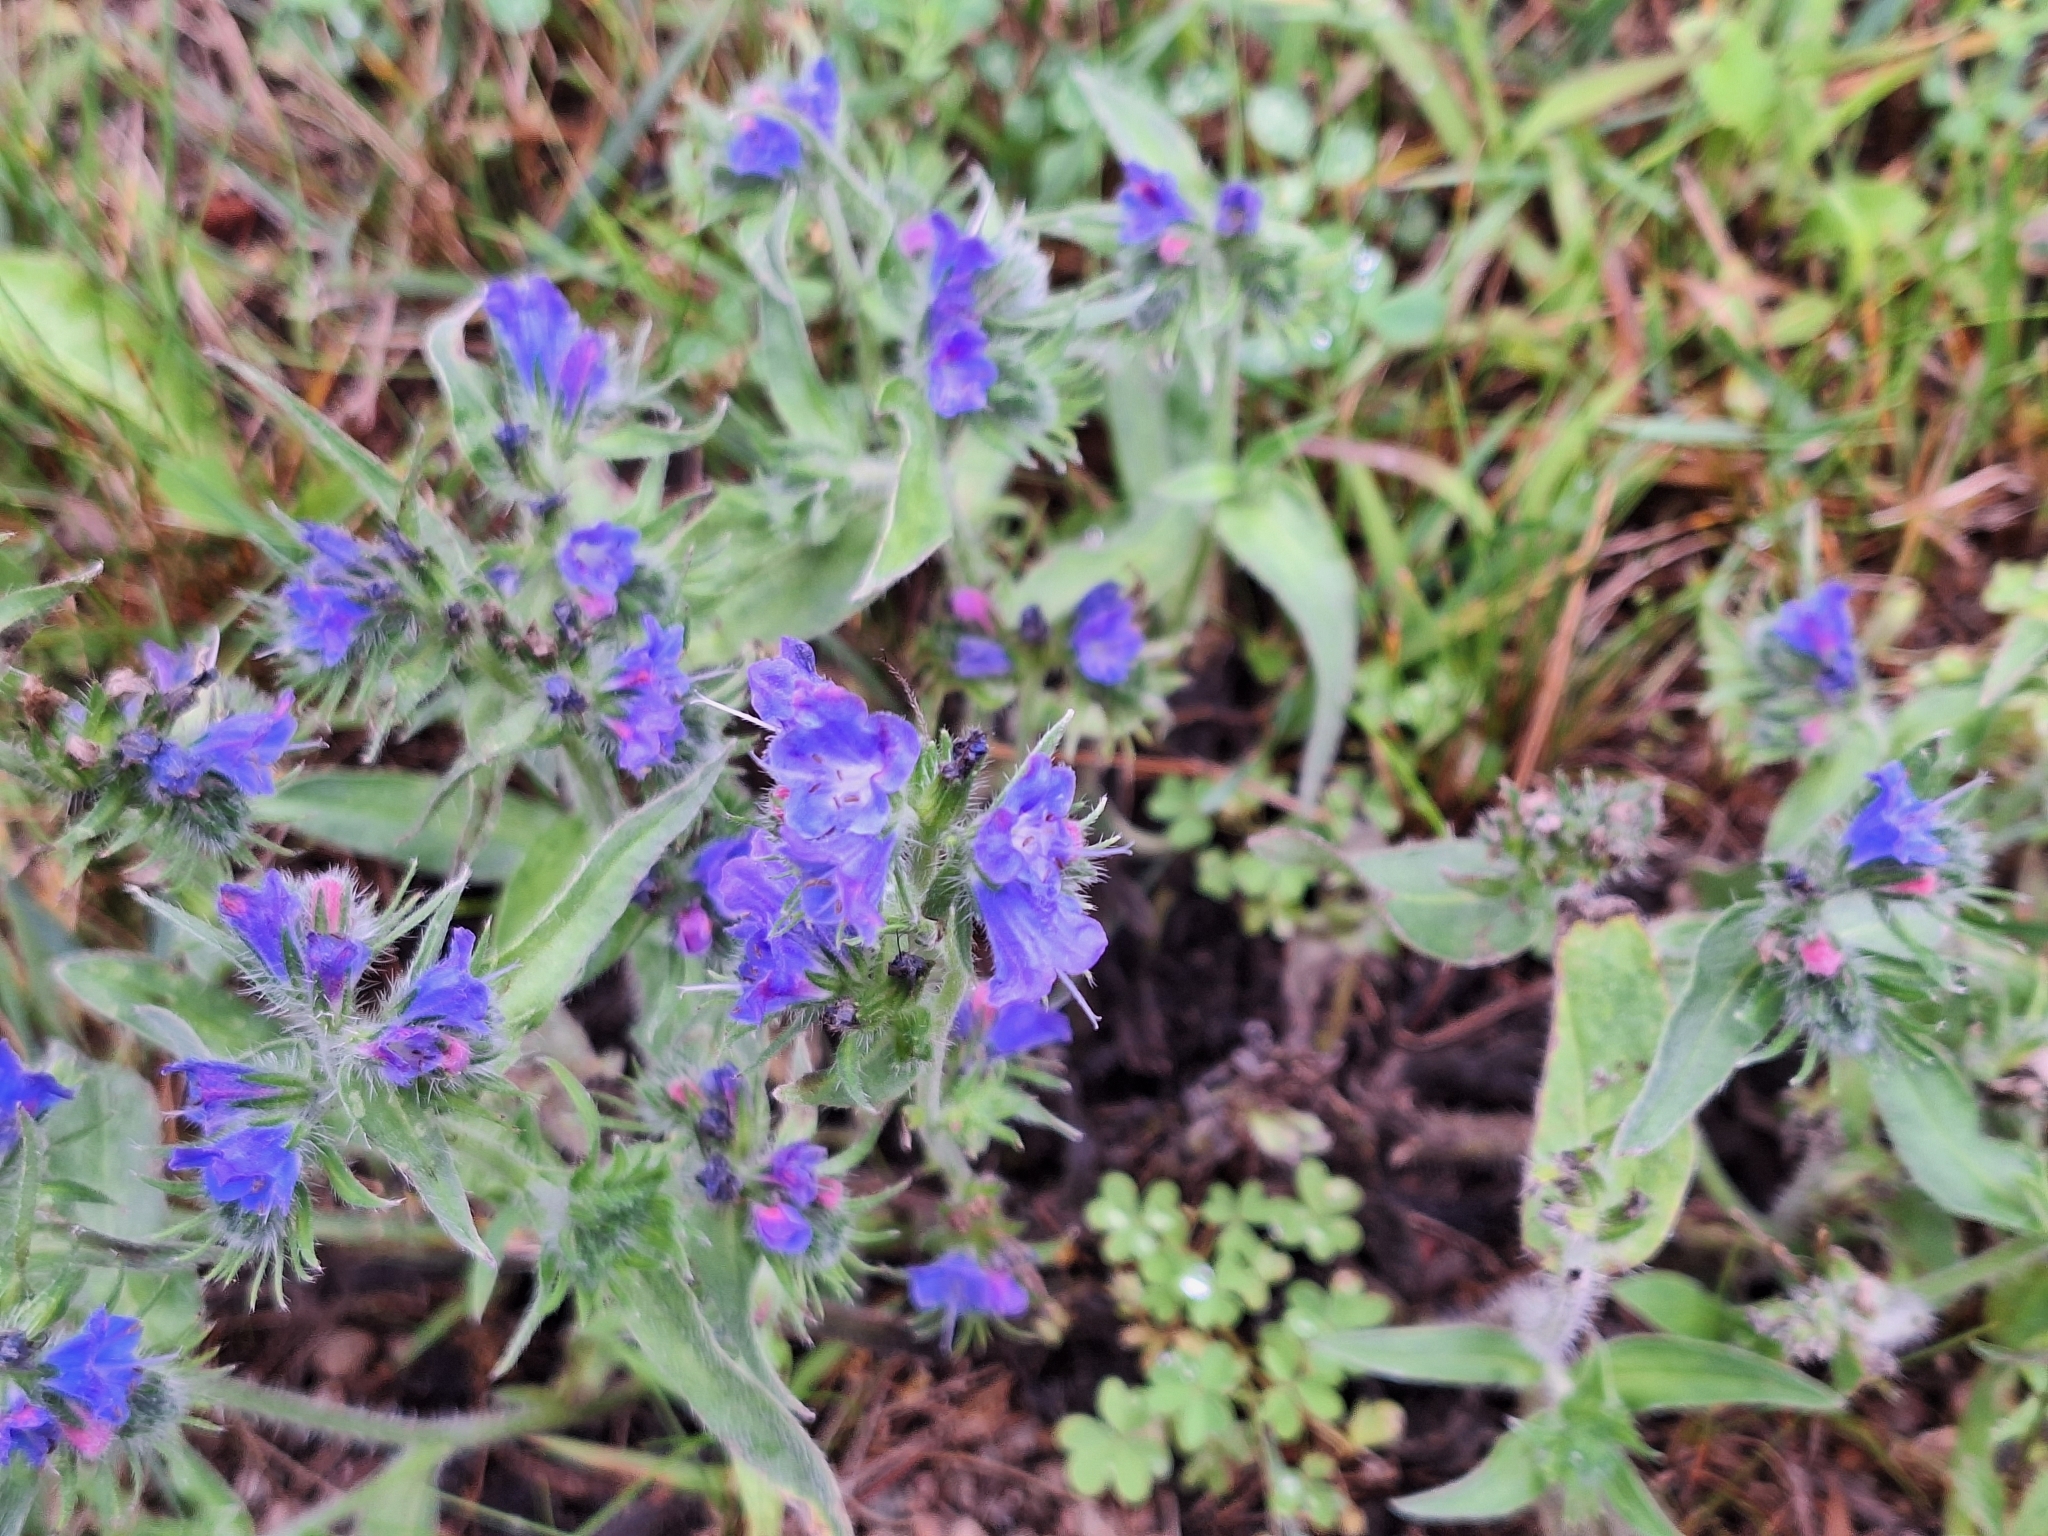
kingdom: Plantae
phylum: Tracheophyta
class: Magnoliopsida
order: Boraginales
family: Boraginaceae
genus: Echium
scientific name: Echium vulgare
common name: Common viper's bugloss
